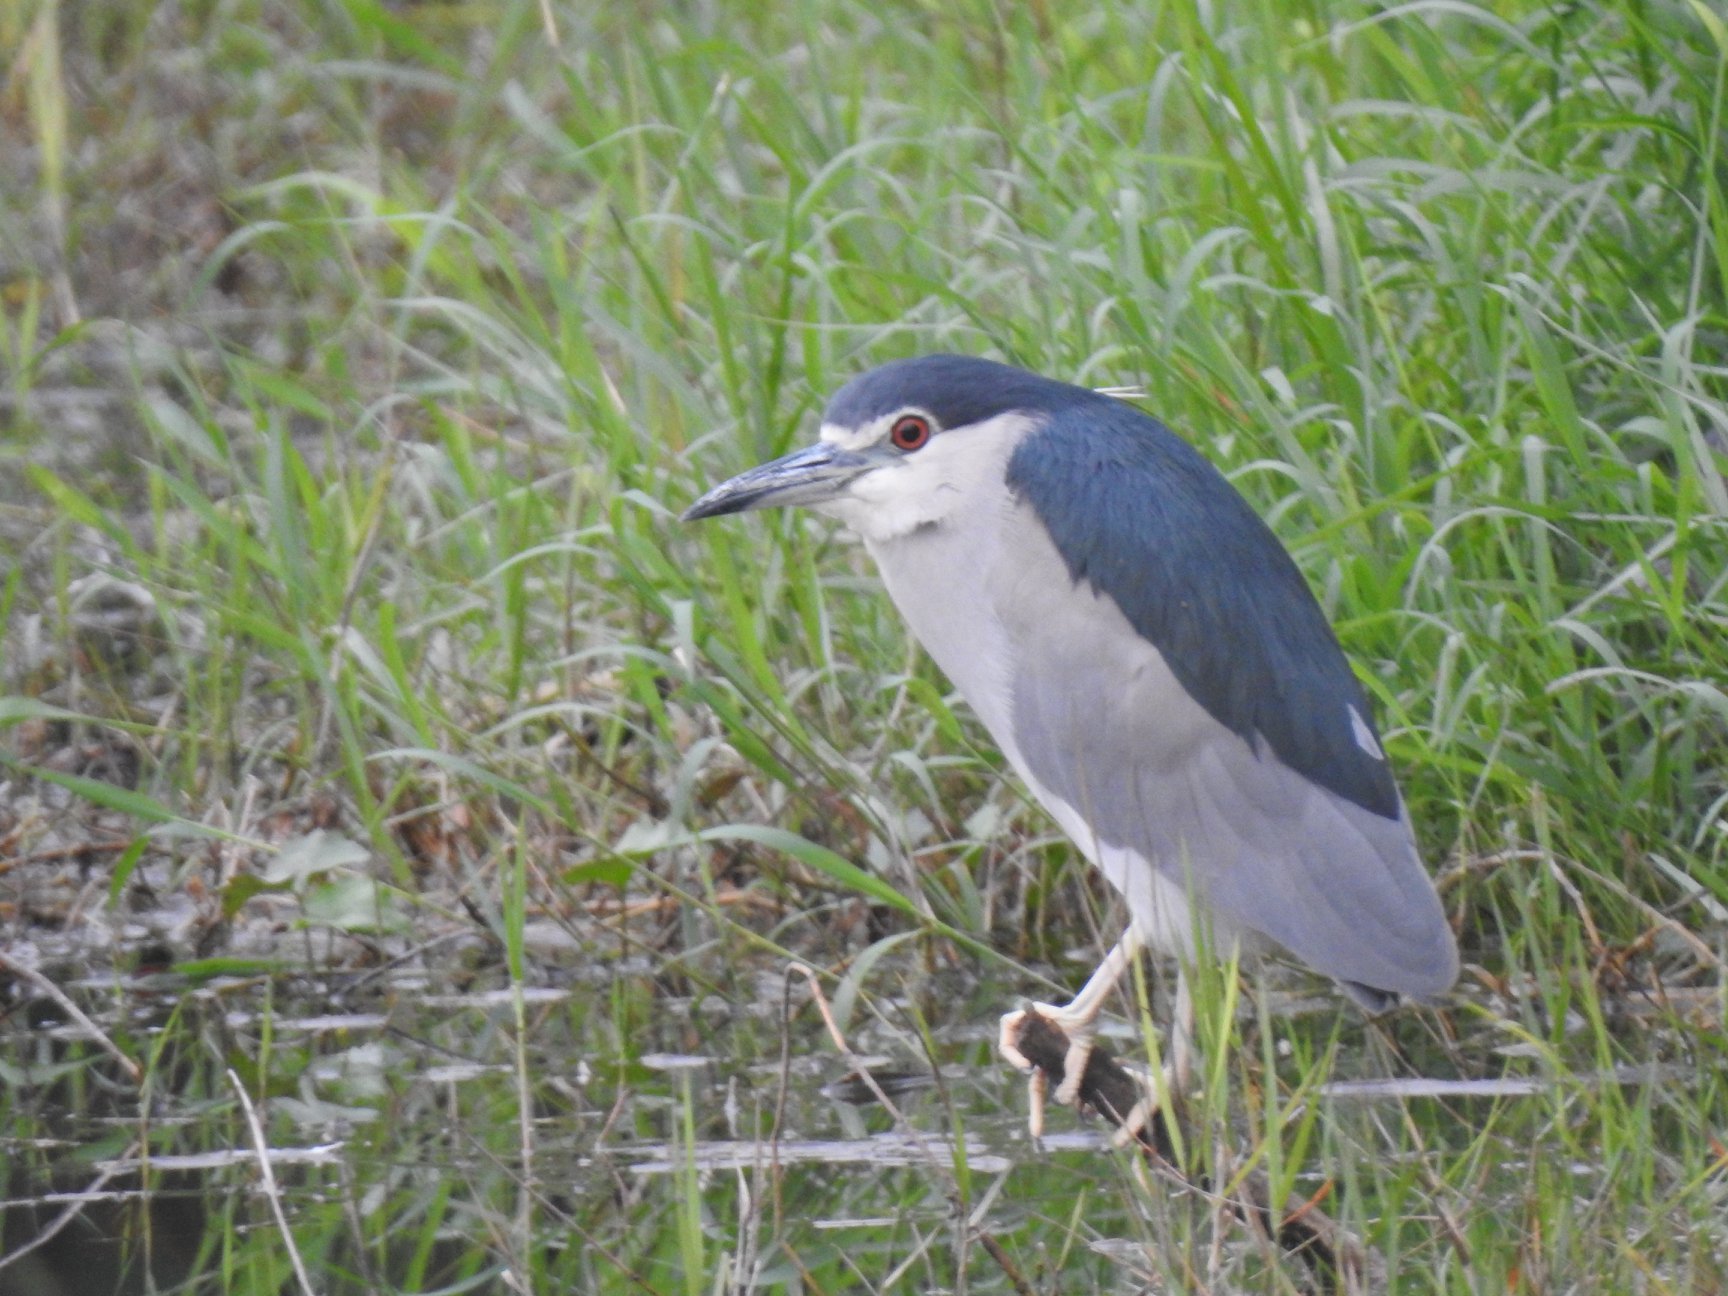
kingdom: Animalia
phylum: Chordata
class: Aves
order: Pelecaniformes
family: Ardeidae
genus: Nycticorax
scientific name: Nycticorax nycticorax
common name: Black-crowned night heron
